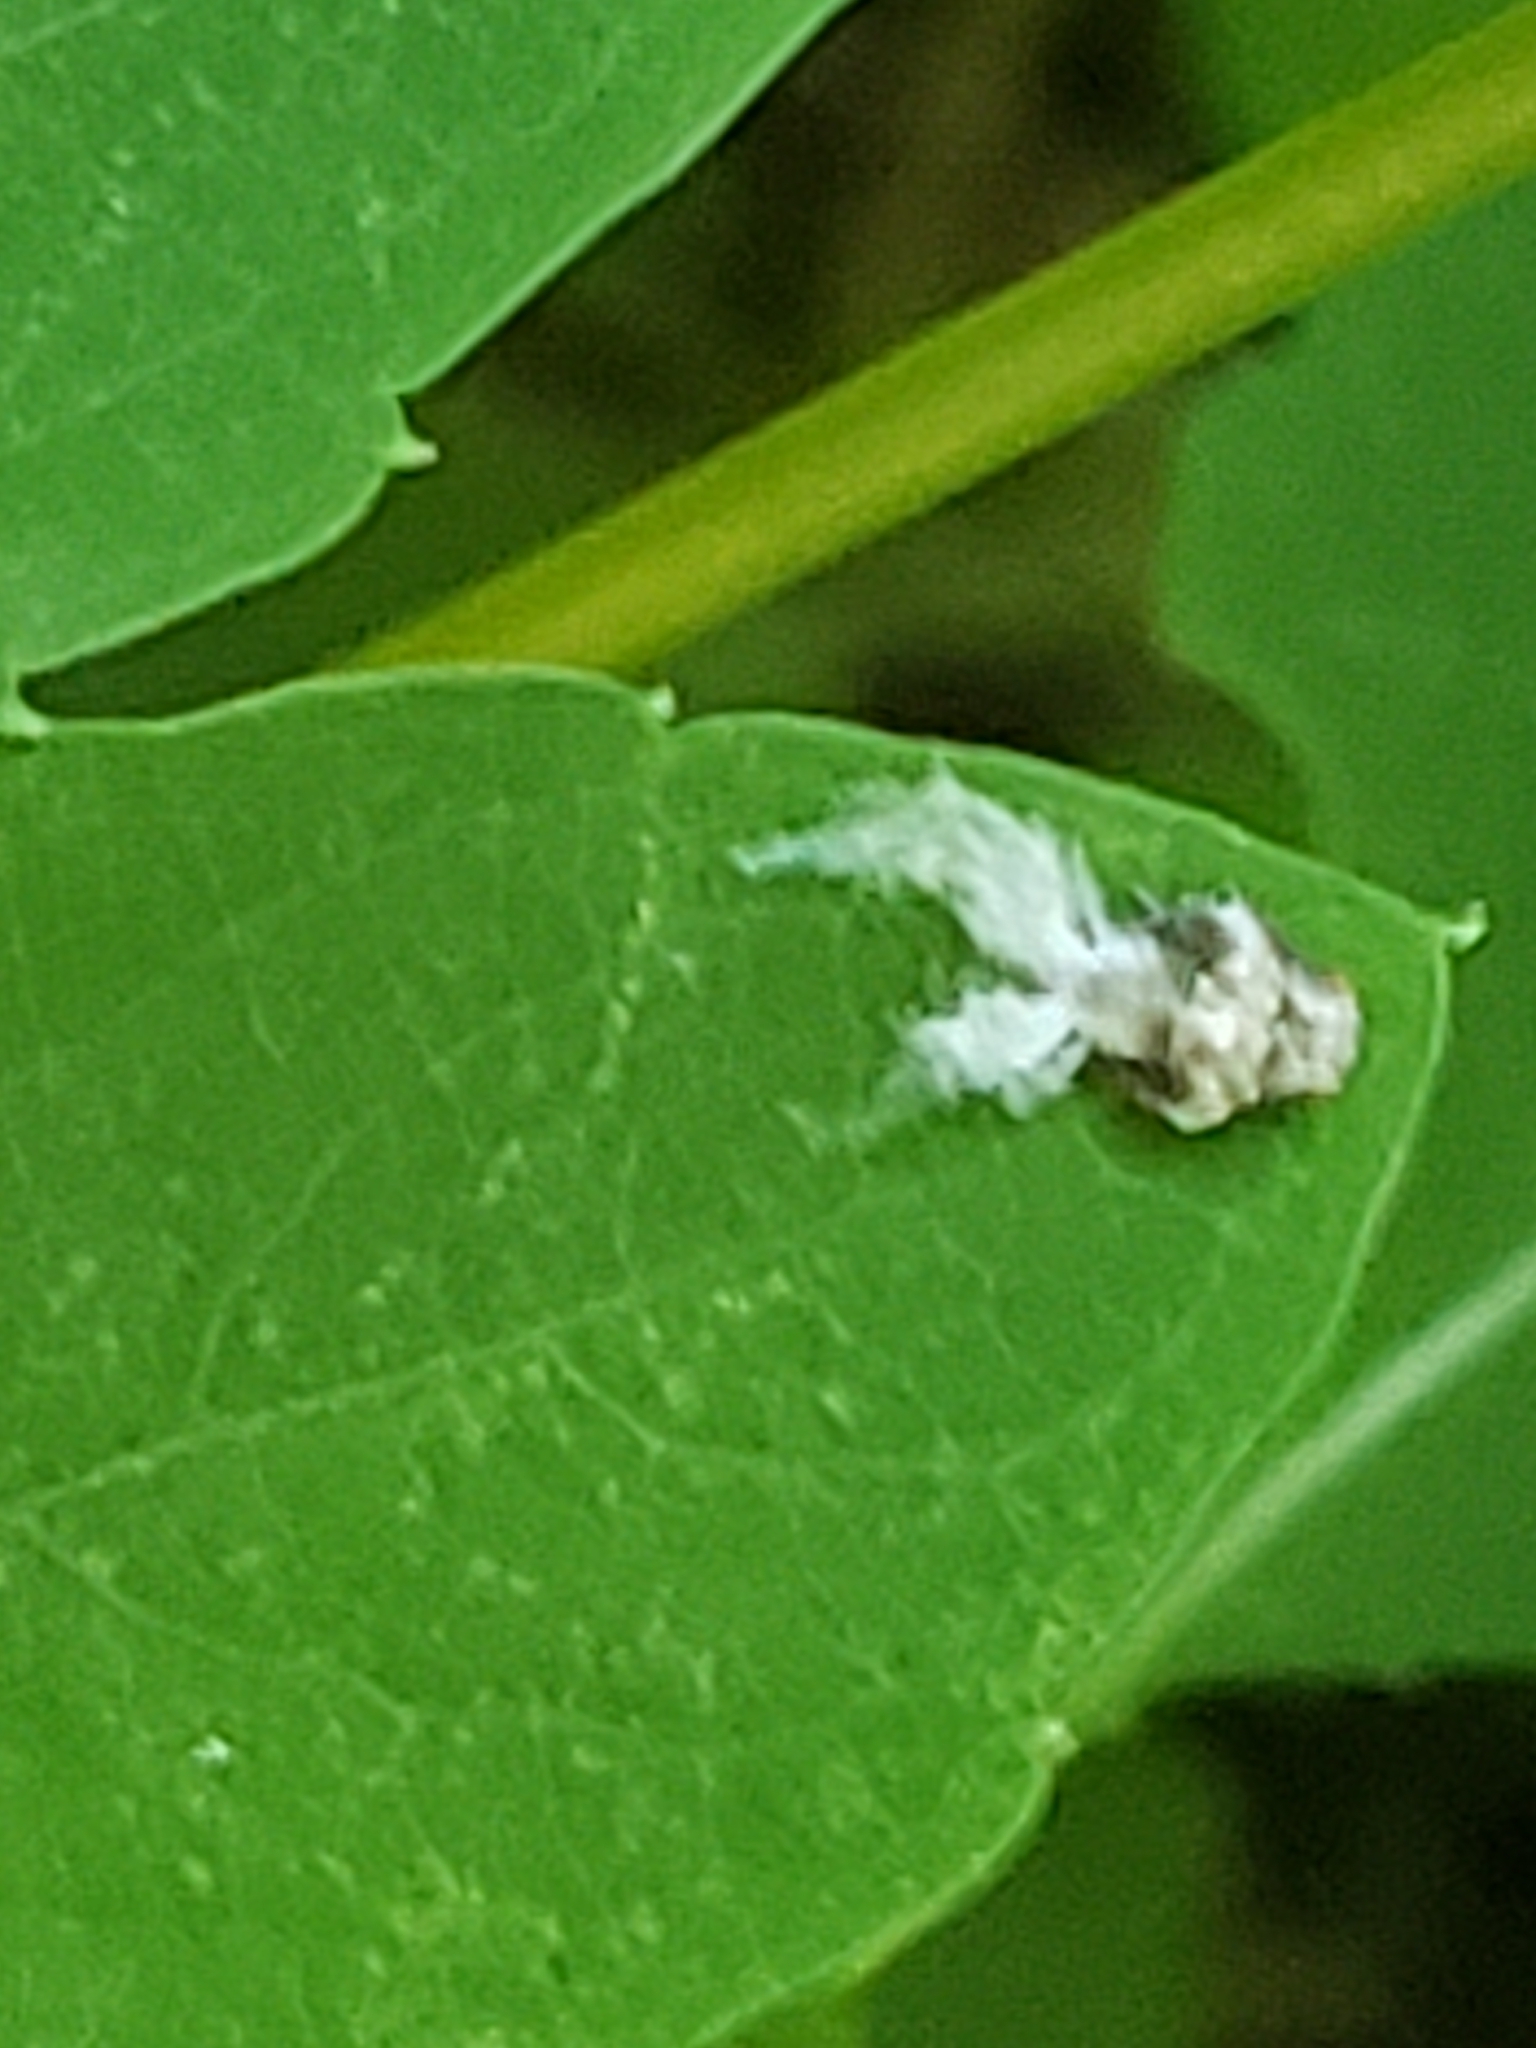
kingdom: Animalia
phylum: Arthropoda
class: Insecta
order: Hemiptera
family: Acanaloniidae
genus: Acanalonia
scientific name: Acanalonia bivittata
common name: Two-striped planthopper
